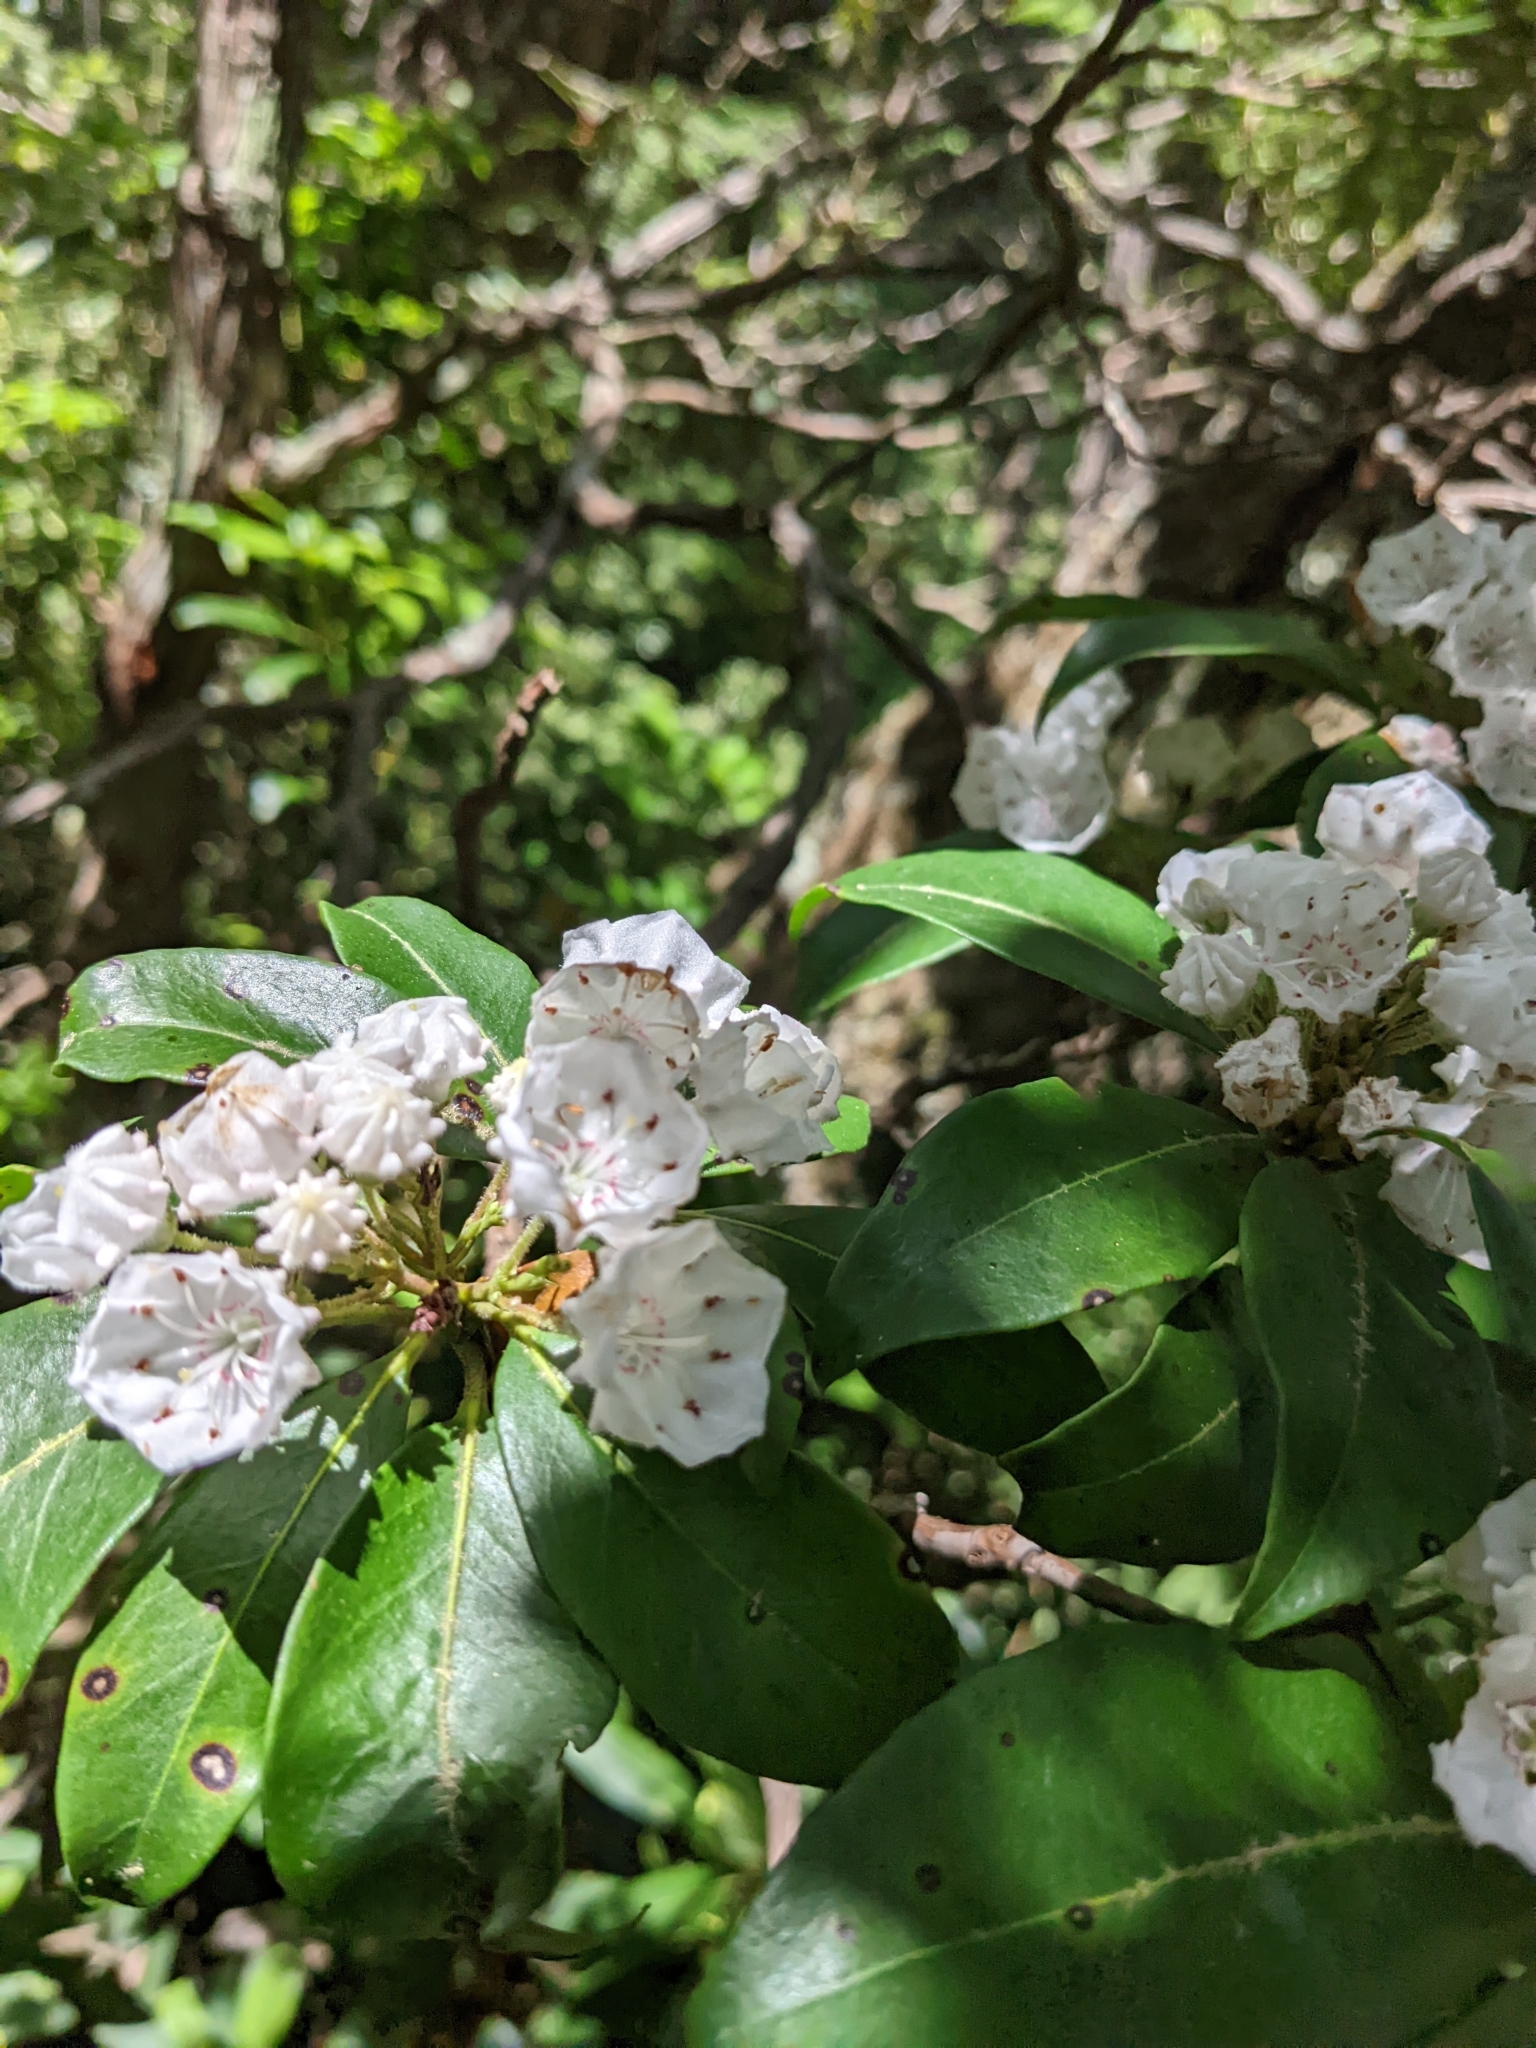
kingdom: Plantae
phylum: Tracheophyta
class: Magnoliopsida
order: Ericales
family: Ericaceae
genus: Kalmia
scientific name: Kalmia latifolia
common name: Mountain-laurel
